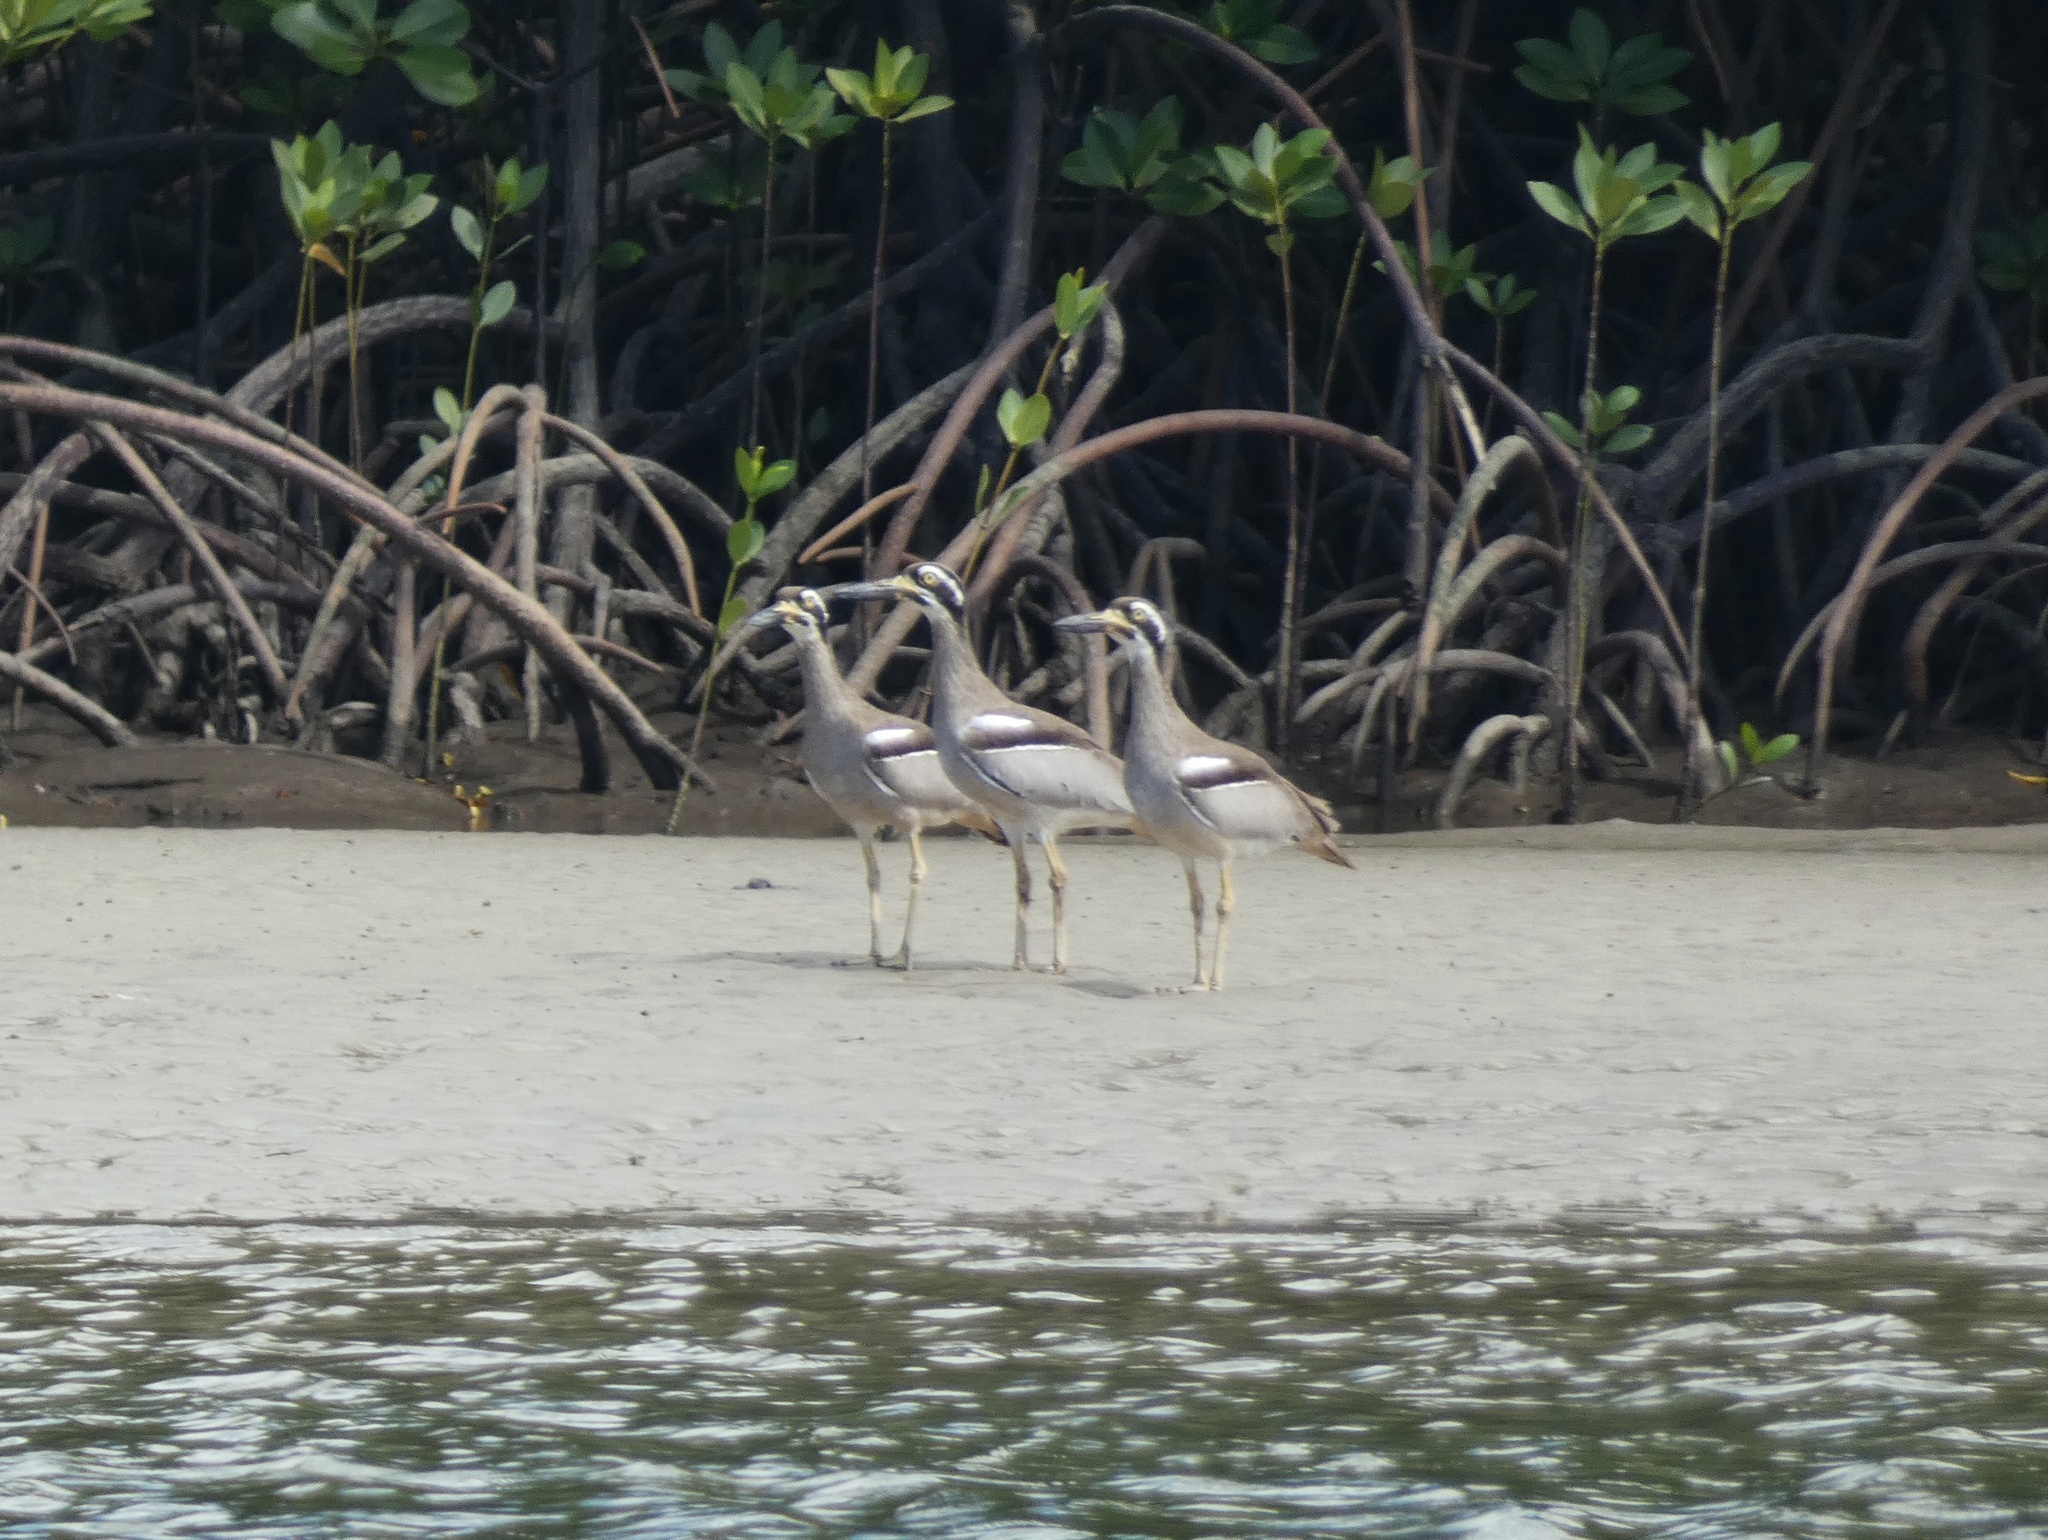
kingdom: Animalia
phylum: Chordata
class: Aves
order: Charadriiformes
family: Burhinidae
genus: Esacus
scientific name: Esacus magnirostris
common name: Beach stone-curlew
